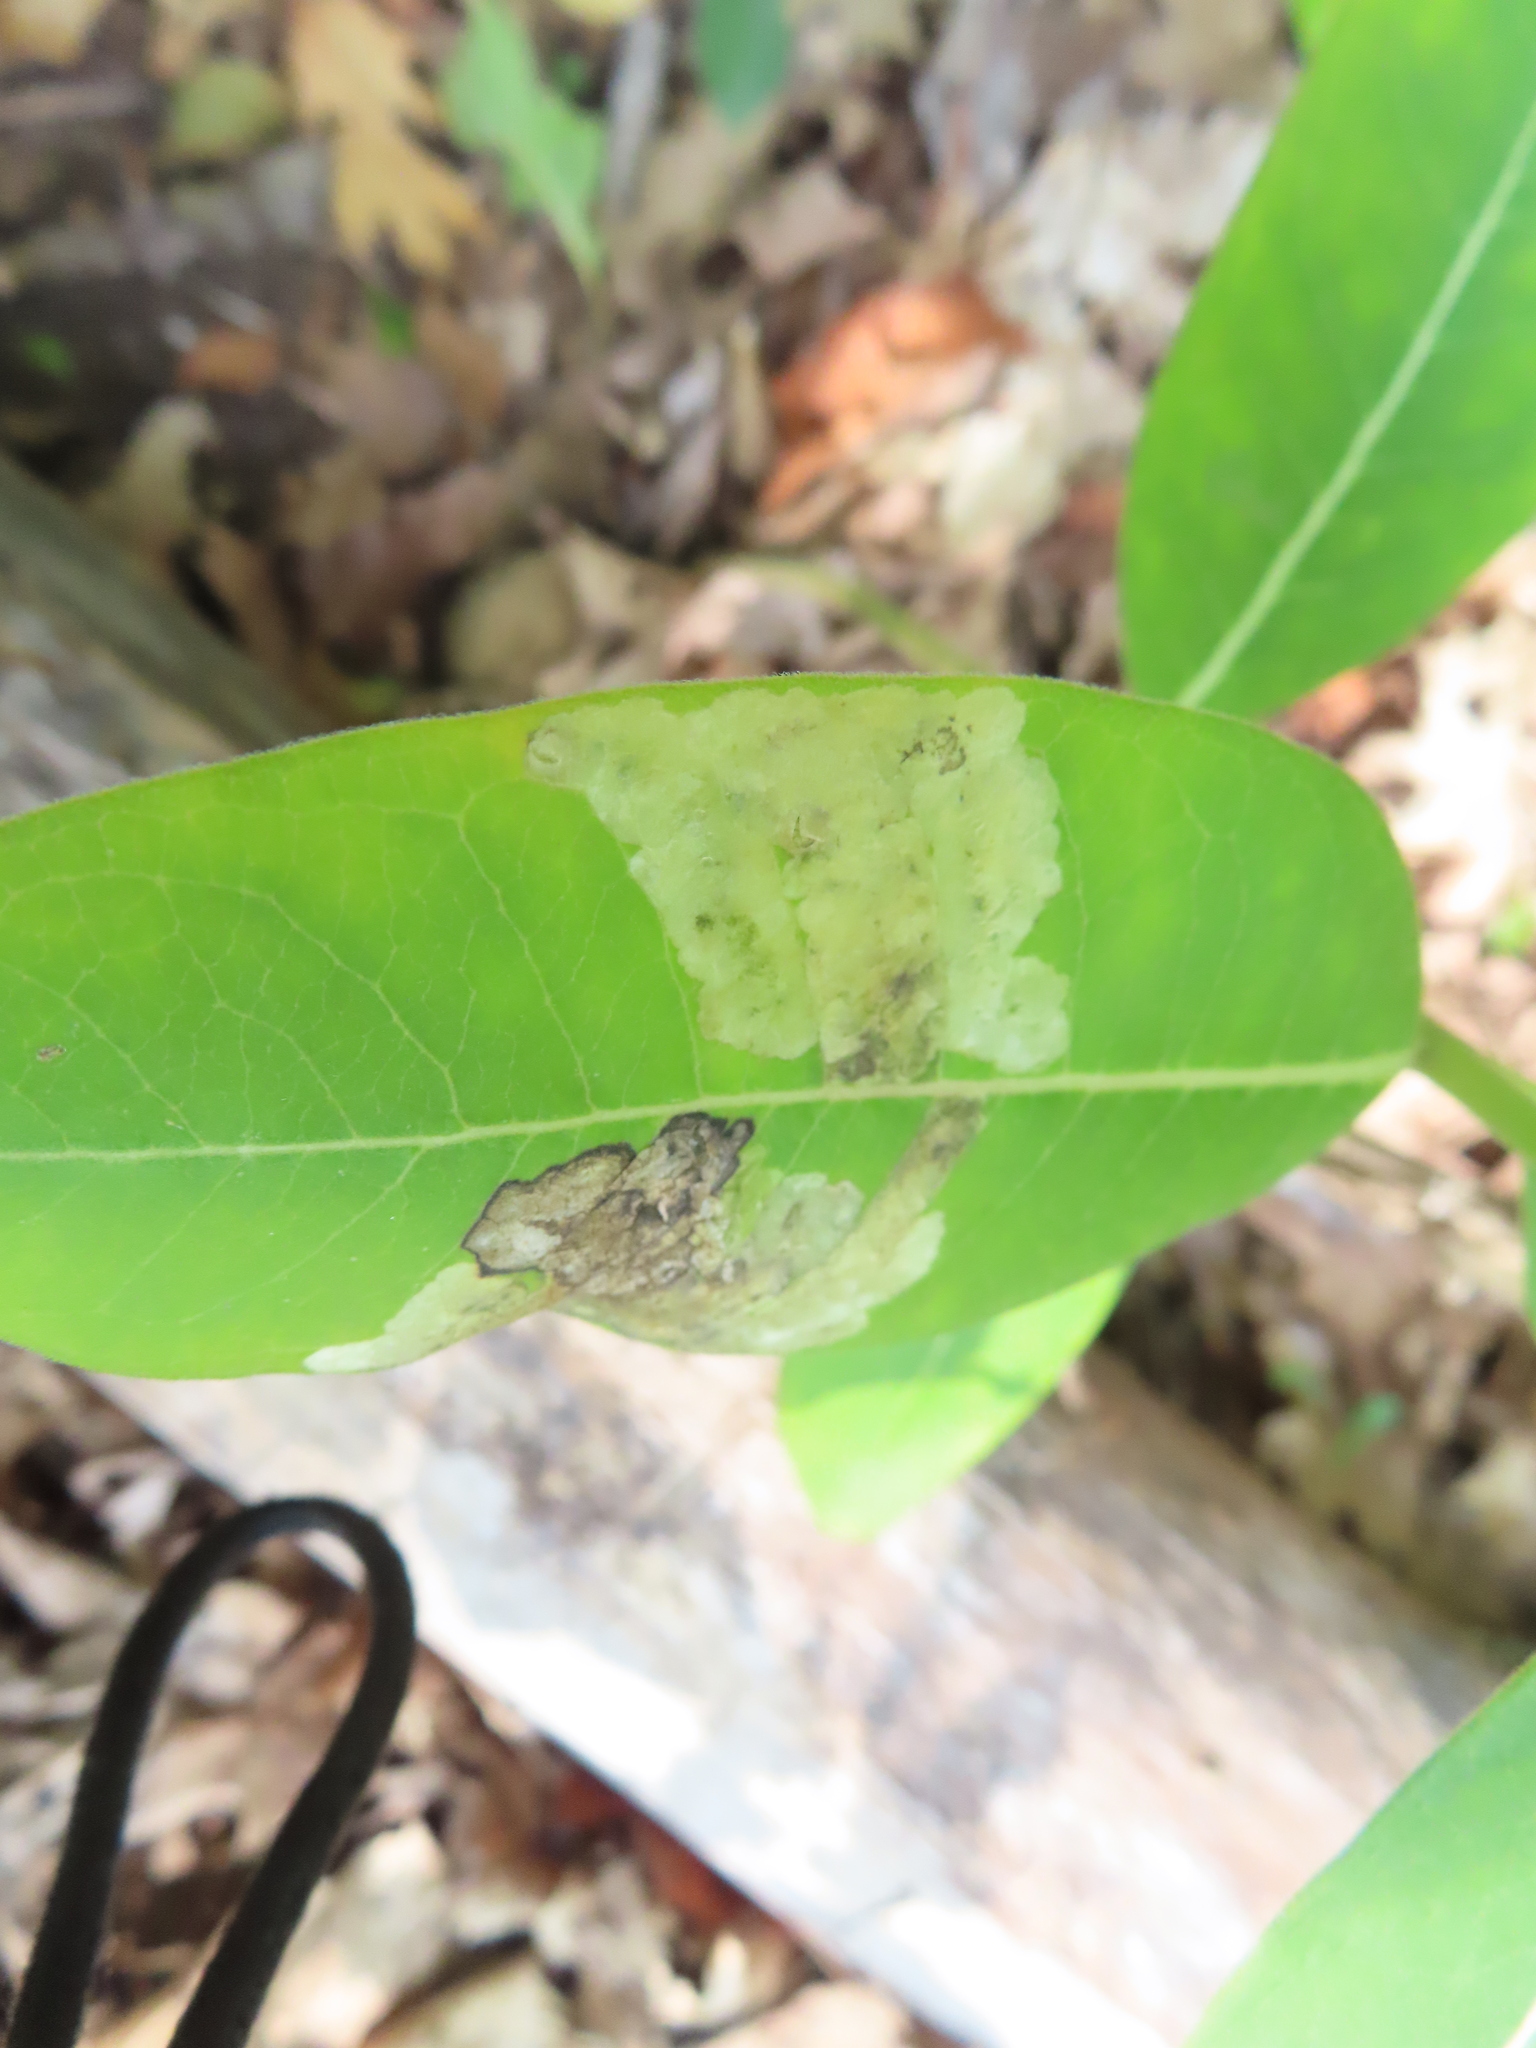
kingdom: Animalia
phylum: Arthropoda
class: Insecta
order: Diptera
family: Agromyzidae
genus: Liriomyza
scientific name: Liriomyza asclepiadis
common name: Milkweed leaf-miner fly
